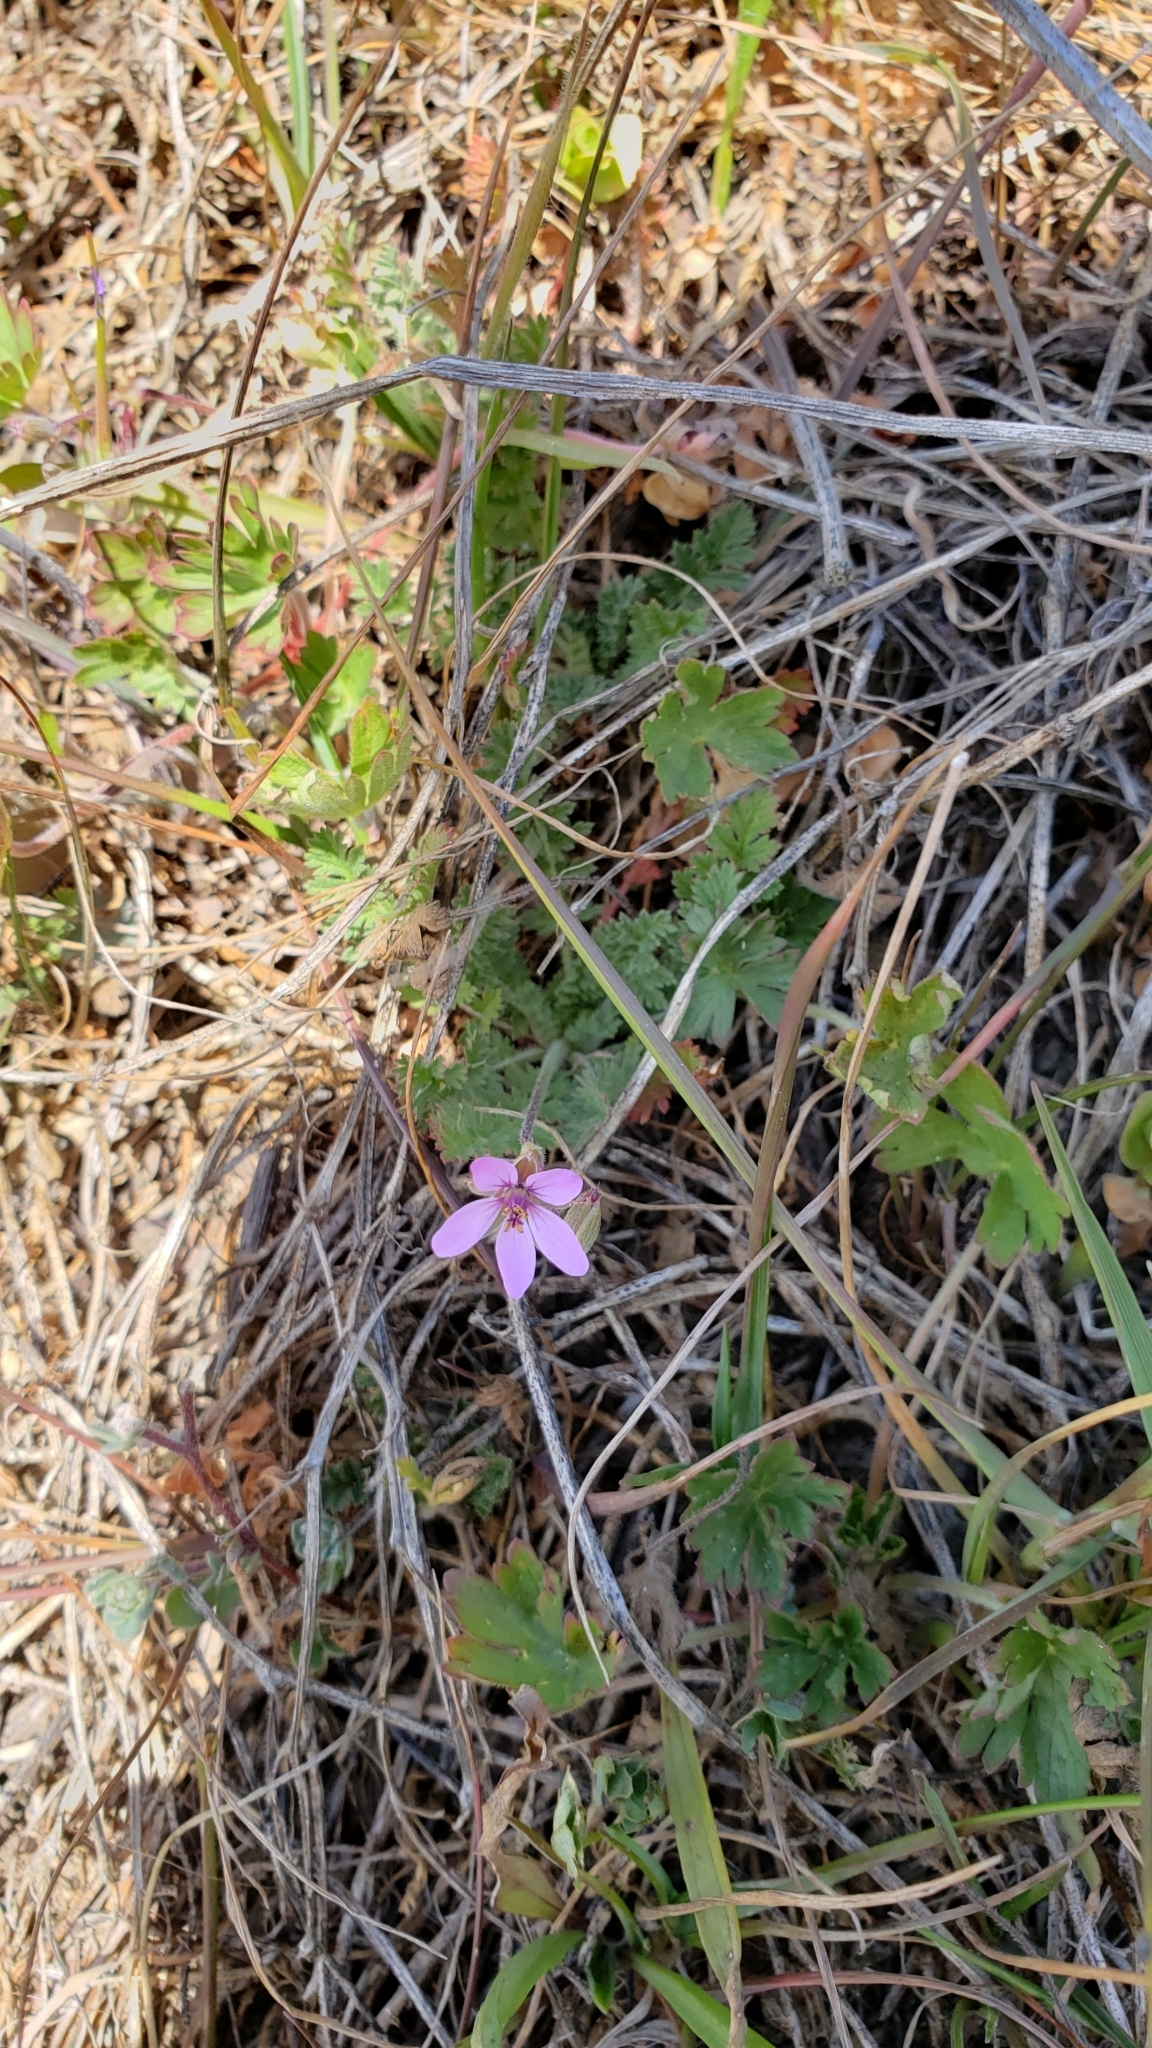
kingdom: Plantae
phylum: Tracheophyta
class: Magnoliopsida
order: Geraniales
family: Geraniaceae
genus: Erodium
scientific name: Erodium cicutarium
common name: Common stork's-bill
